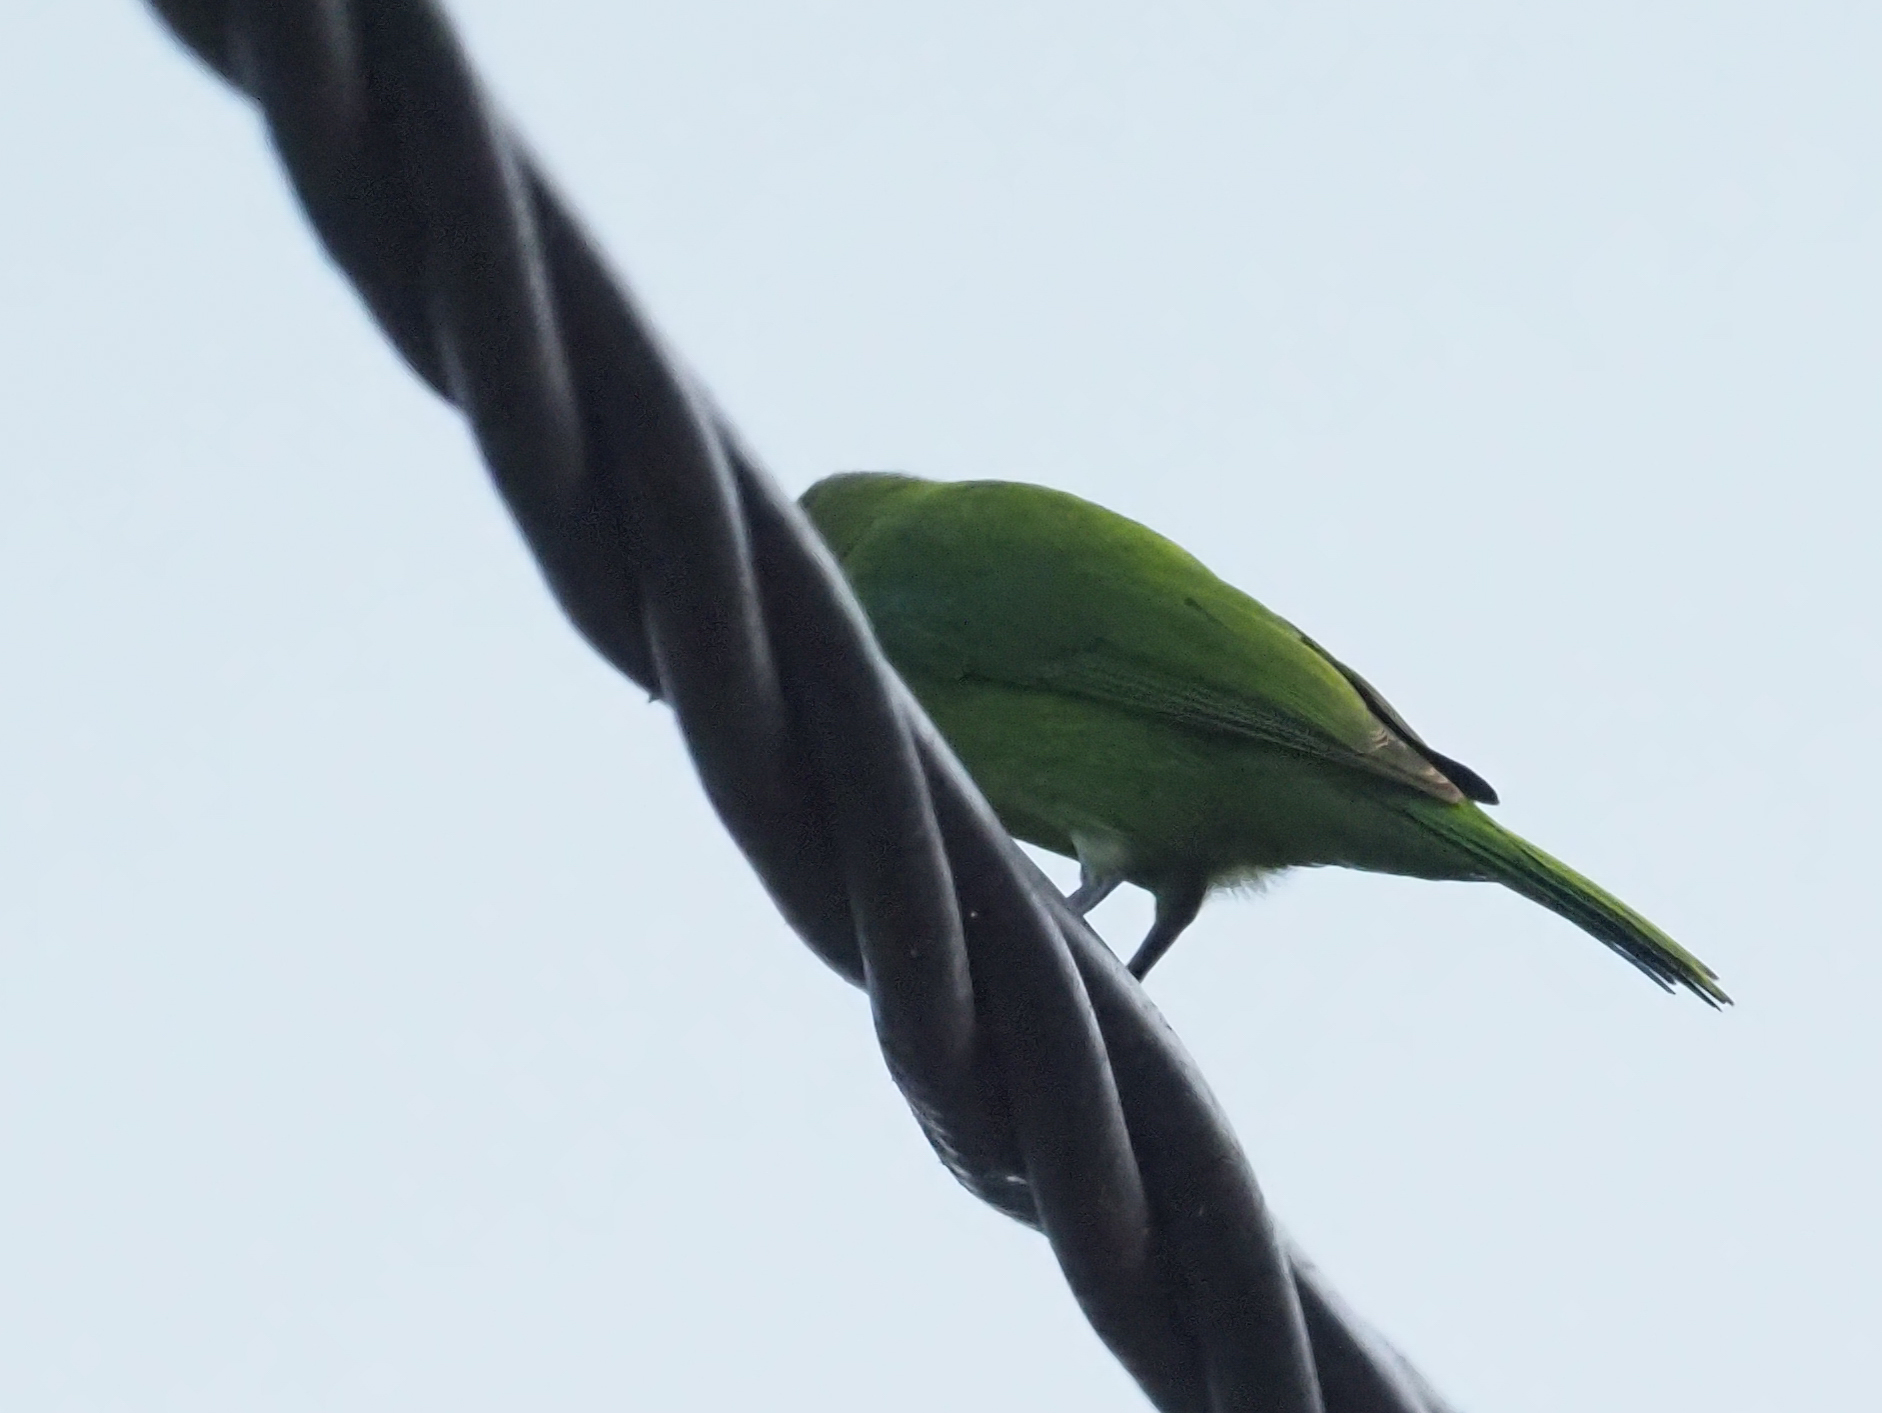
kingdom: Animalia
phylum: Chordata
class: Aves
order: Passeriformes
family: Chloropseidae
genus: Chloropsis
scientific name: Chloropsis
